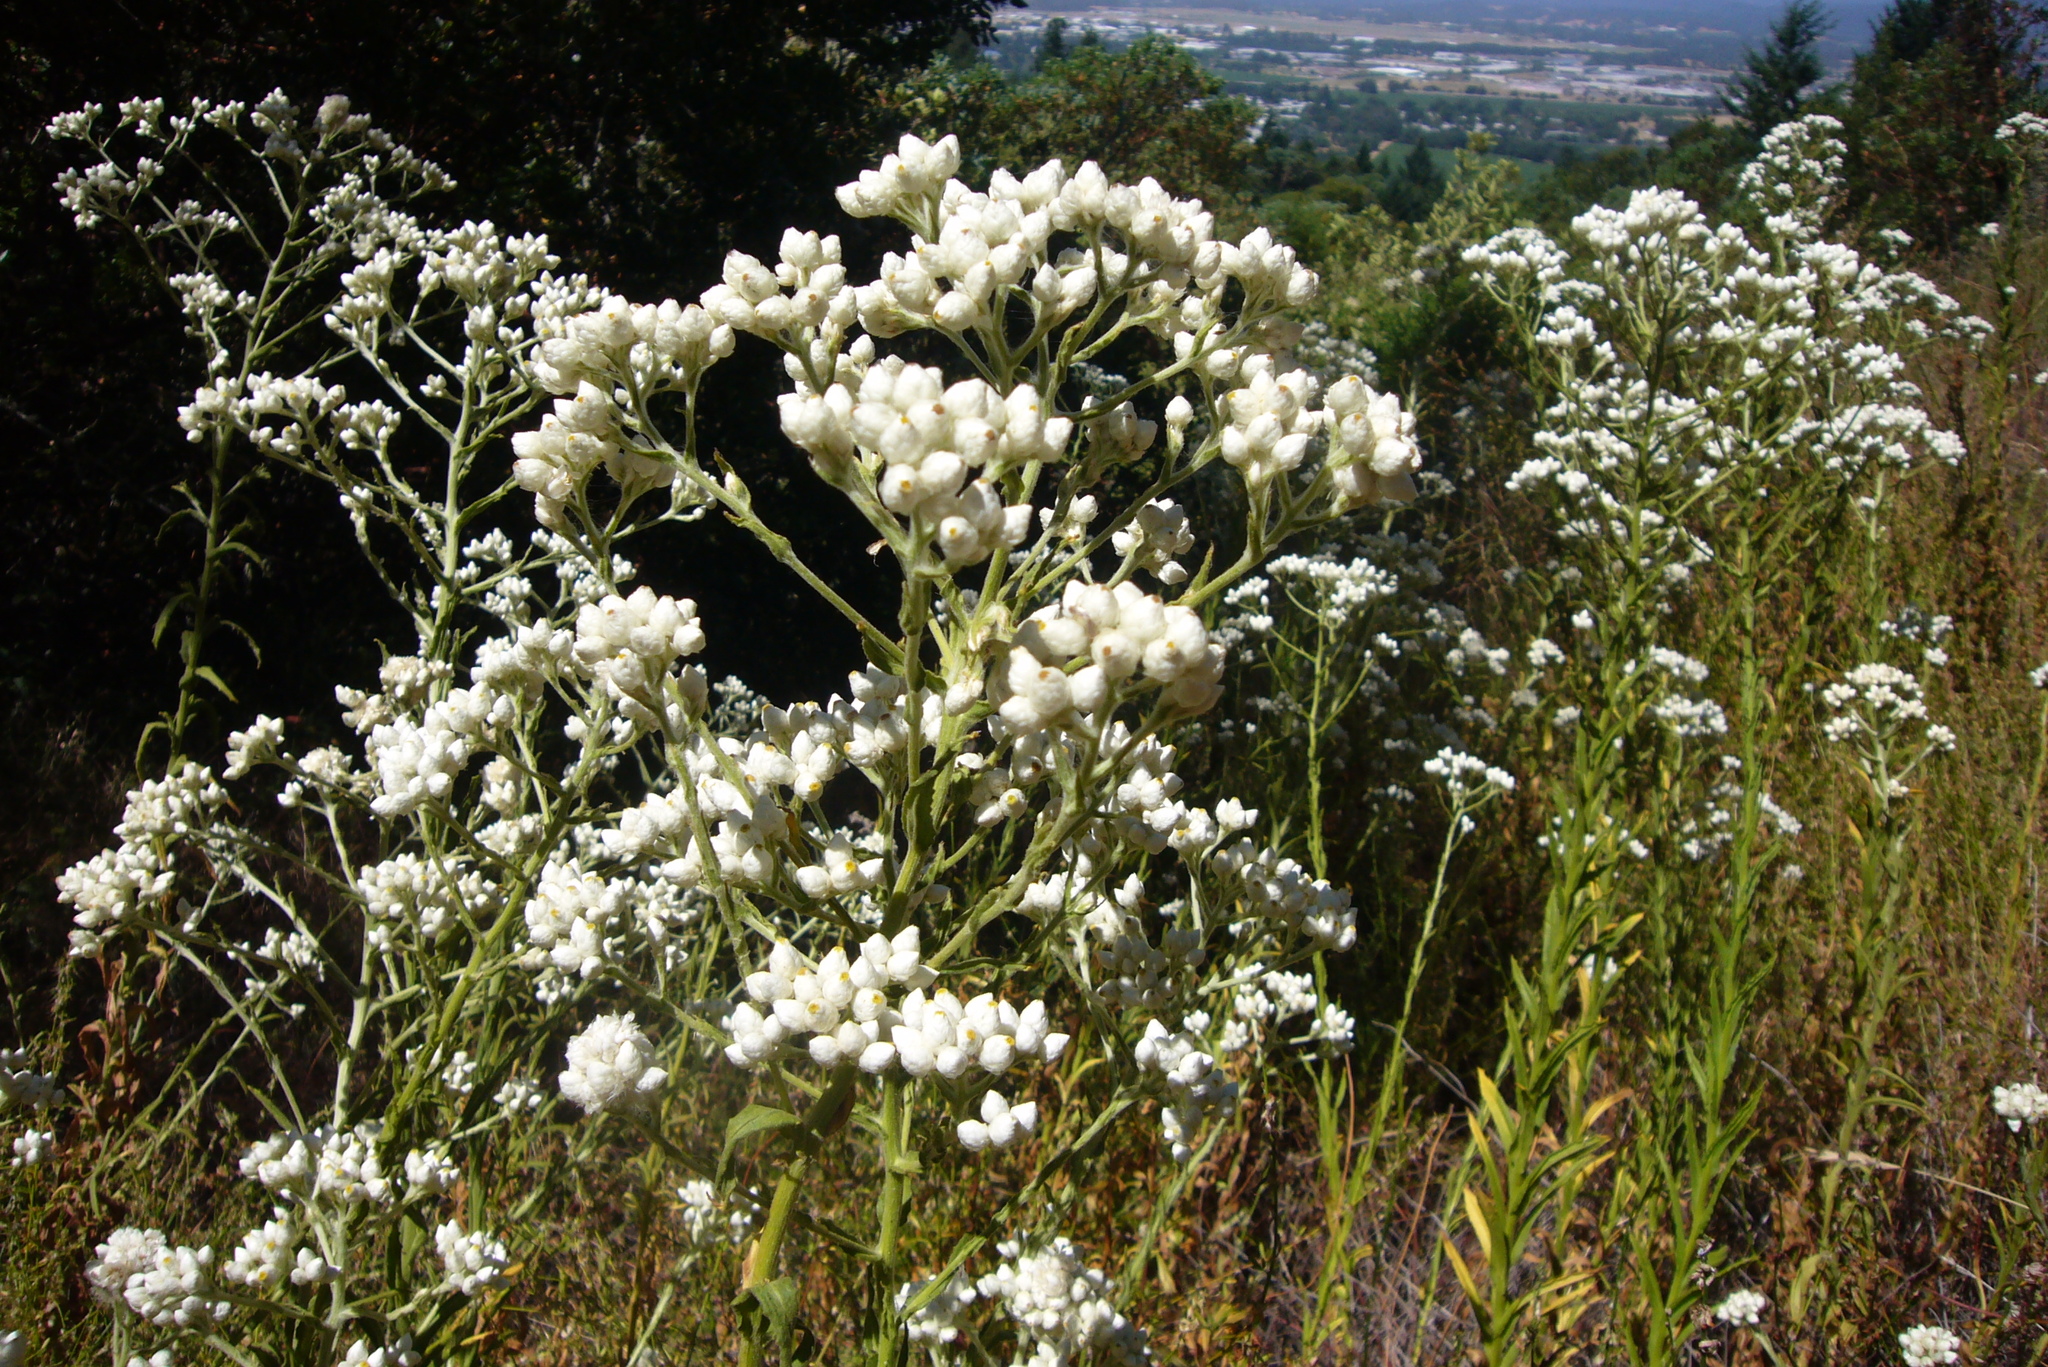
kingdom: Plantae
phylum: Tracheophyta
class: Magnoliopsida
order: Asterales
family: Asteraceae
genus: Pseudognaphalium
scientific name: Pseudognaphalium californicum
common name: California rabbit-tobacco
